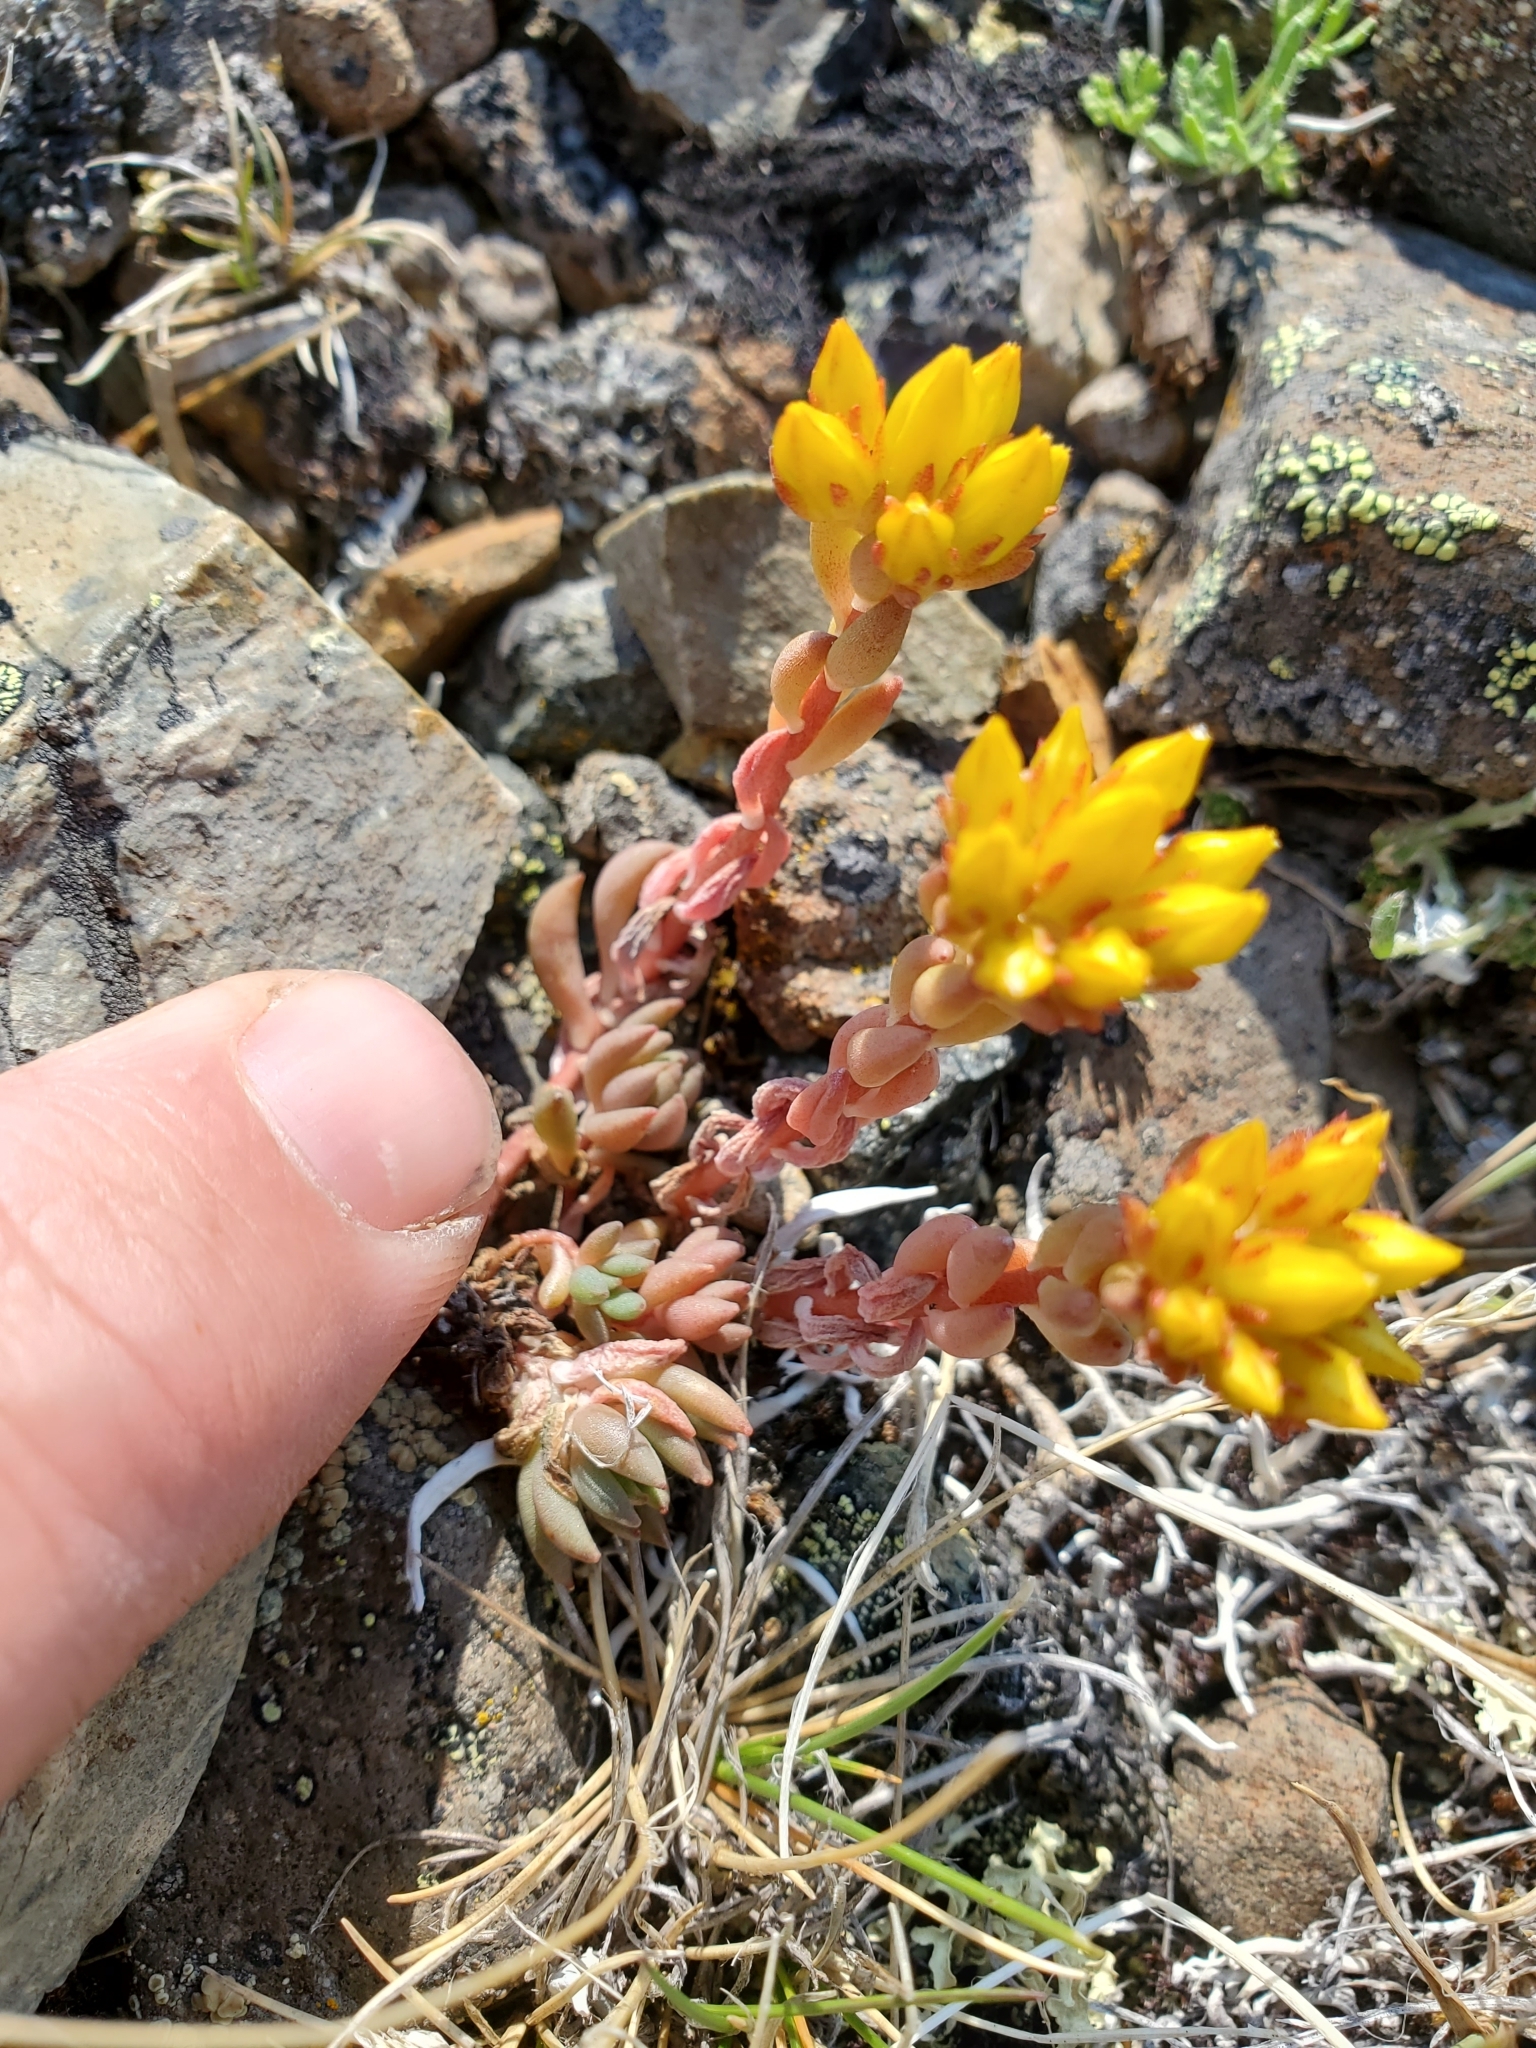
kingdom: Plantae
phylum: Tracheophyta
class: Magnoliopsida
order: Saxifragales
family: Crassulaceae
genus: Sedum
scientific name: Sedum lanceolatum
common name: Common stonecrop
